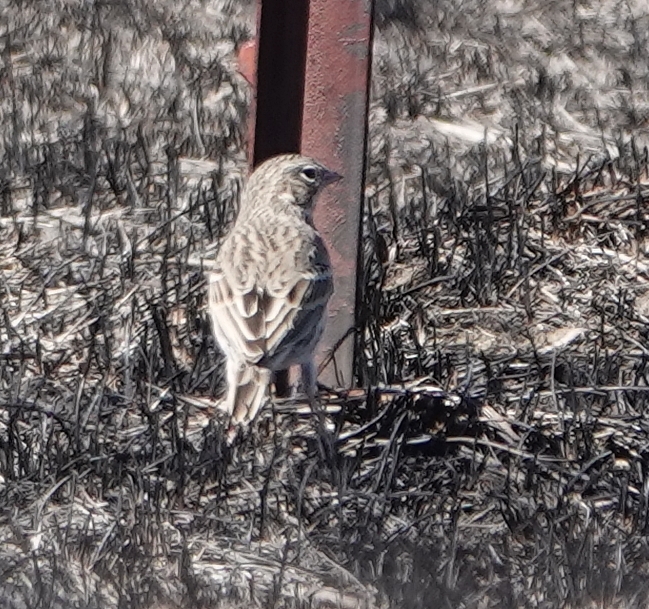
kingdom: Animalia
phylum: Chordata
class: Aves
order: Passeriformes
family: Passerellidae
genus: Pooecetes
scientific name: Pooecetes gramineus
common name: Vesper sparrow
